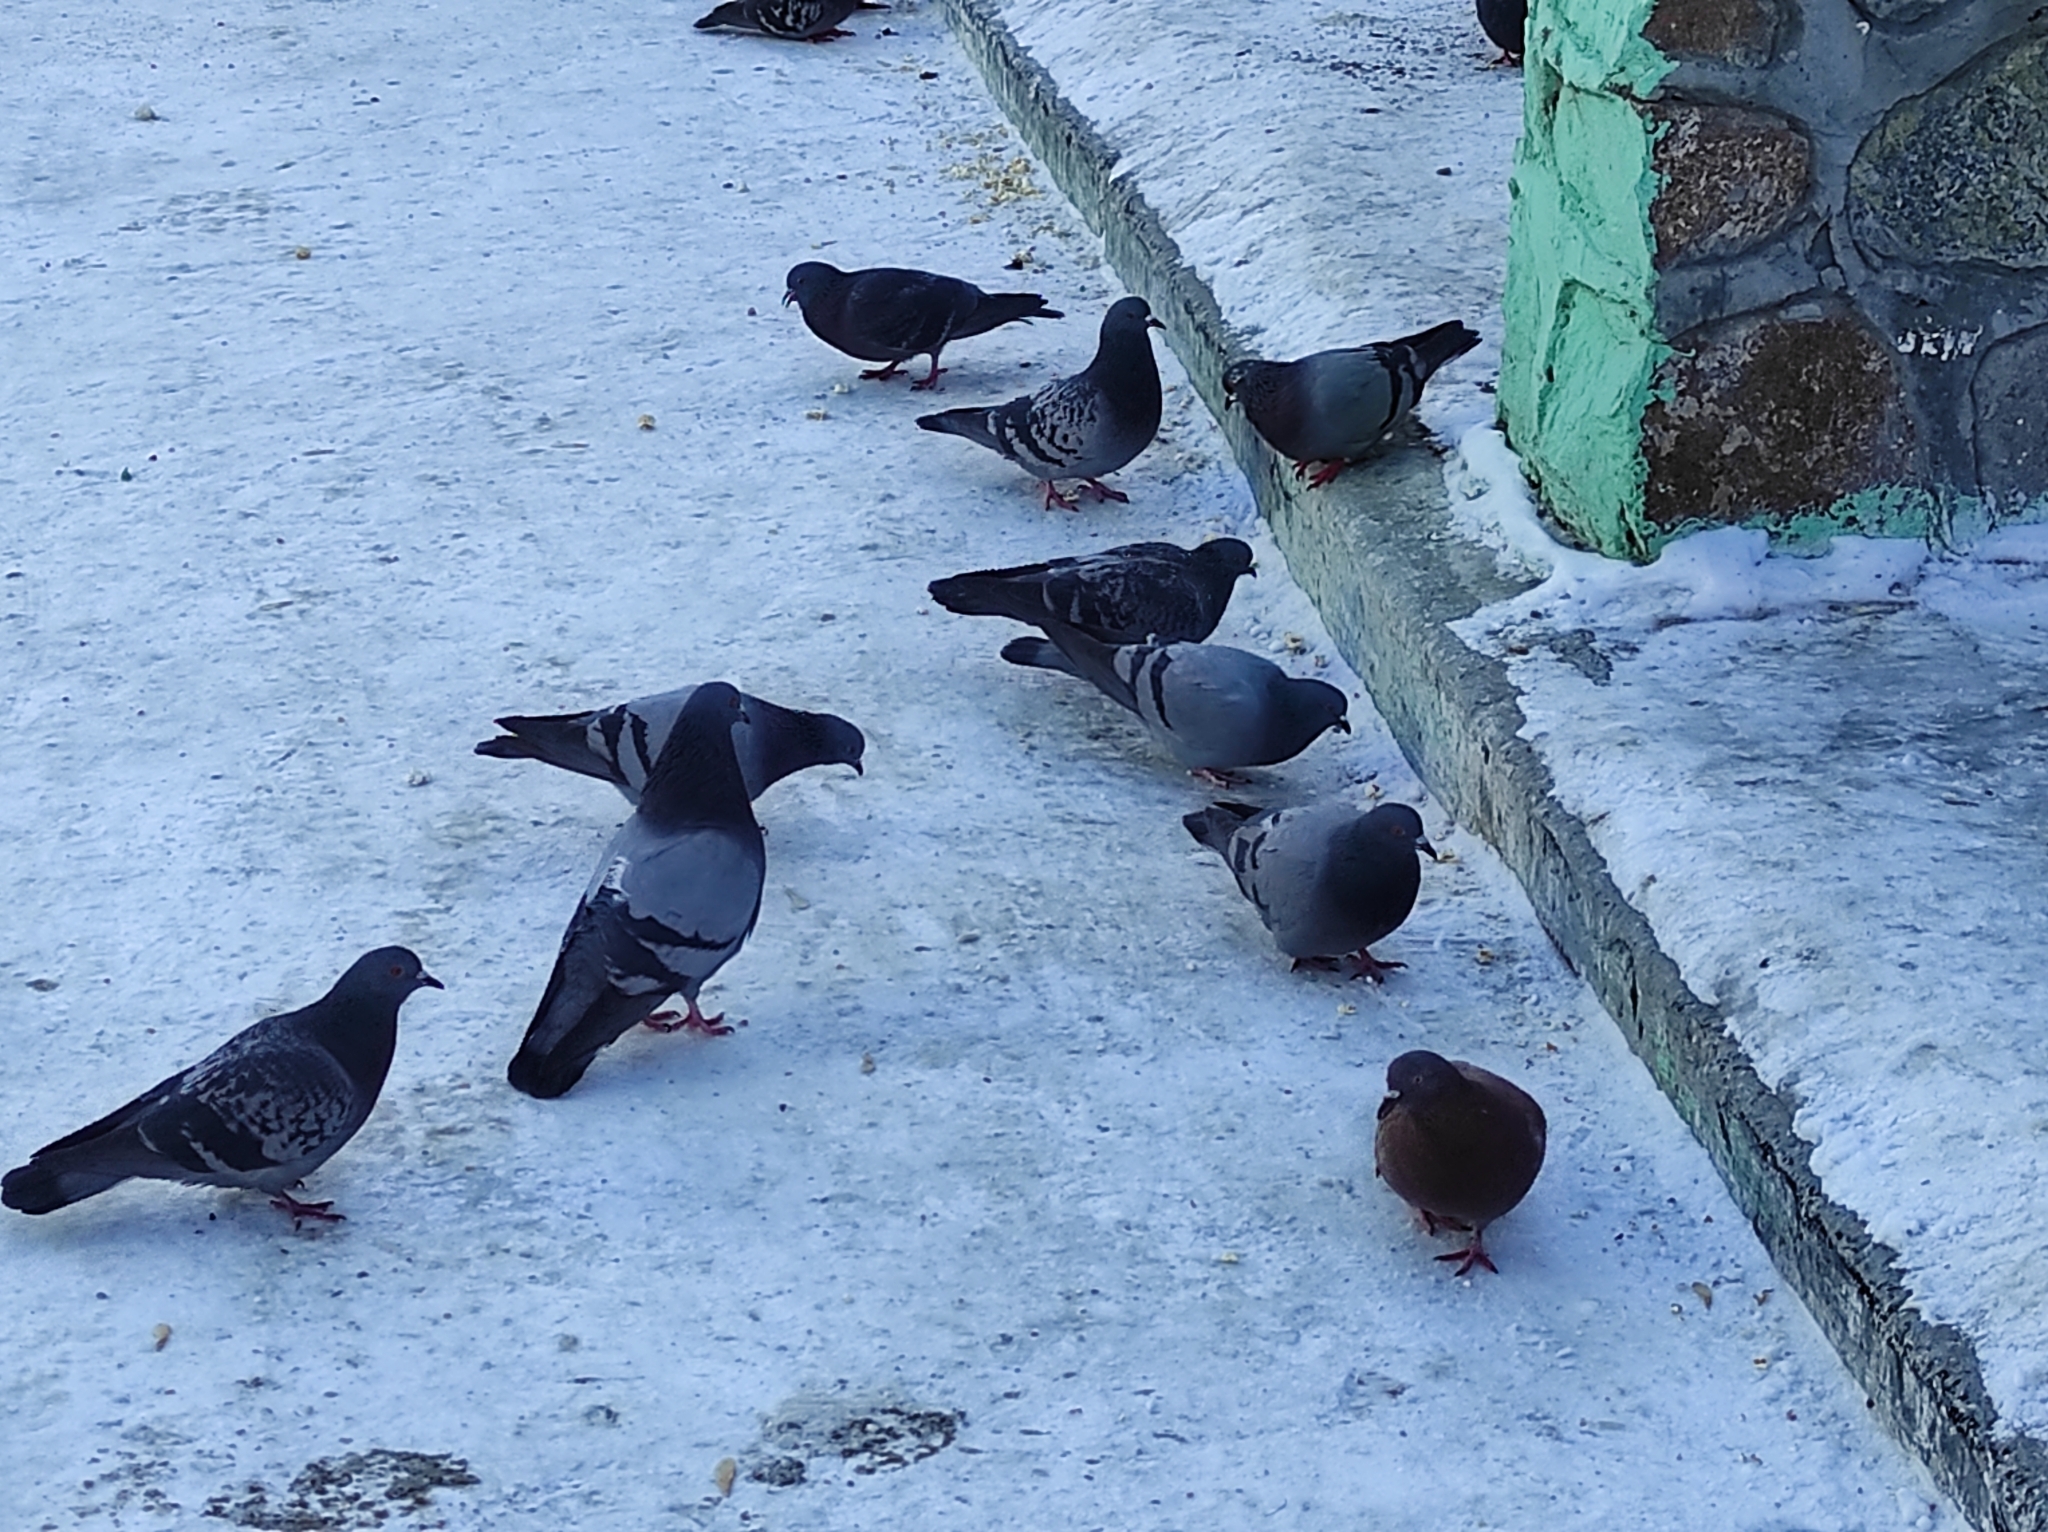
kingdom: Animalia
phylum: Chordata
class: Aves
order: Columbiformes
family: Columbidae
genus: Columba
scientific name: Columba livia
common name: Rock pigeon
